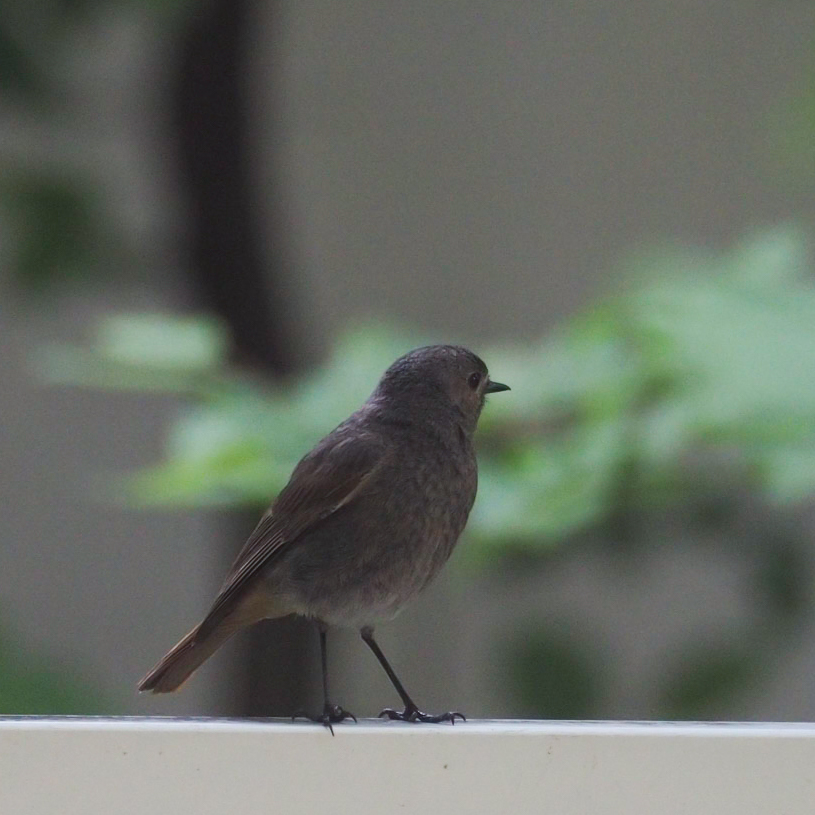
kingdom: Animalia
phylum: Chordata
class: Aves
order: Passeriformes
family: Muscicapidae
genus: Phoenicurus
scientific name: Phoenicurus ochruros
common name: Black redstart
